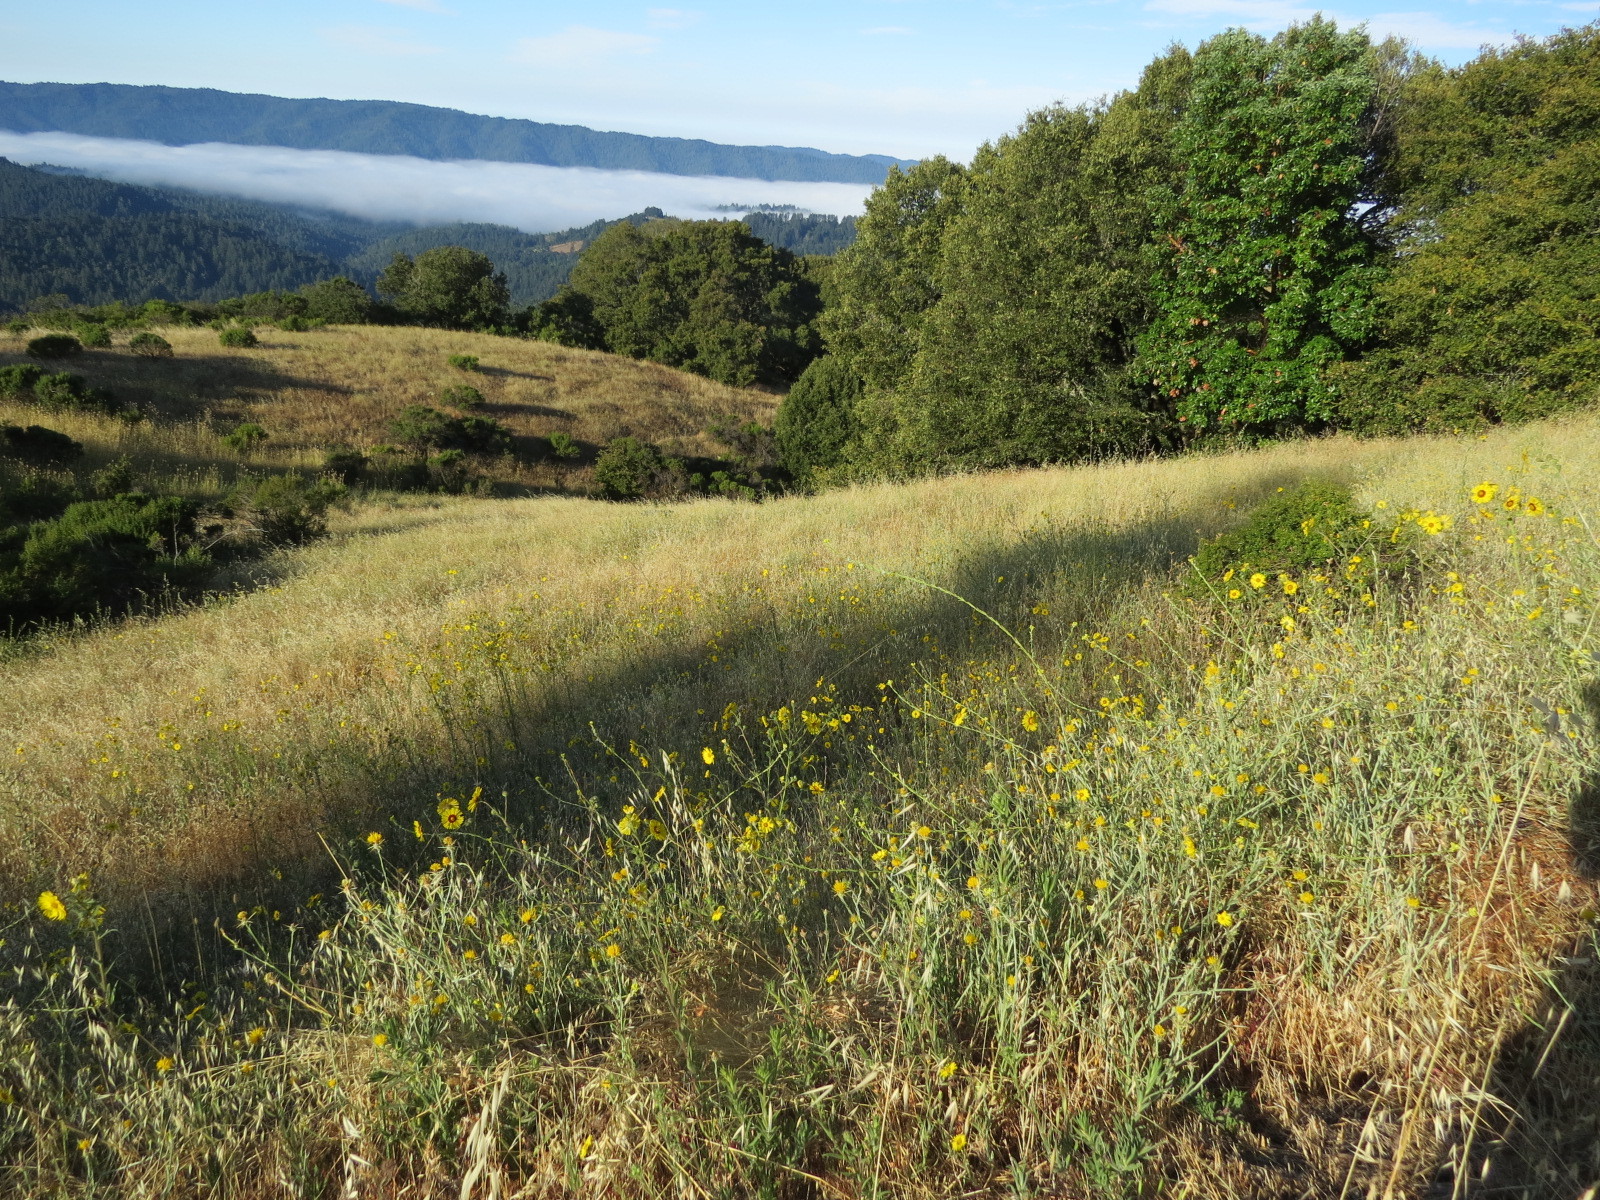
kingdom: Plantae
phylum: Tracheophyta
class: Magnoliopsida
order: Asterales
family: Asteraceae
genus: Madia
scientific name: Madia elegans
